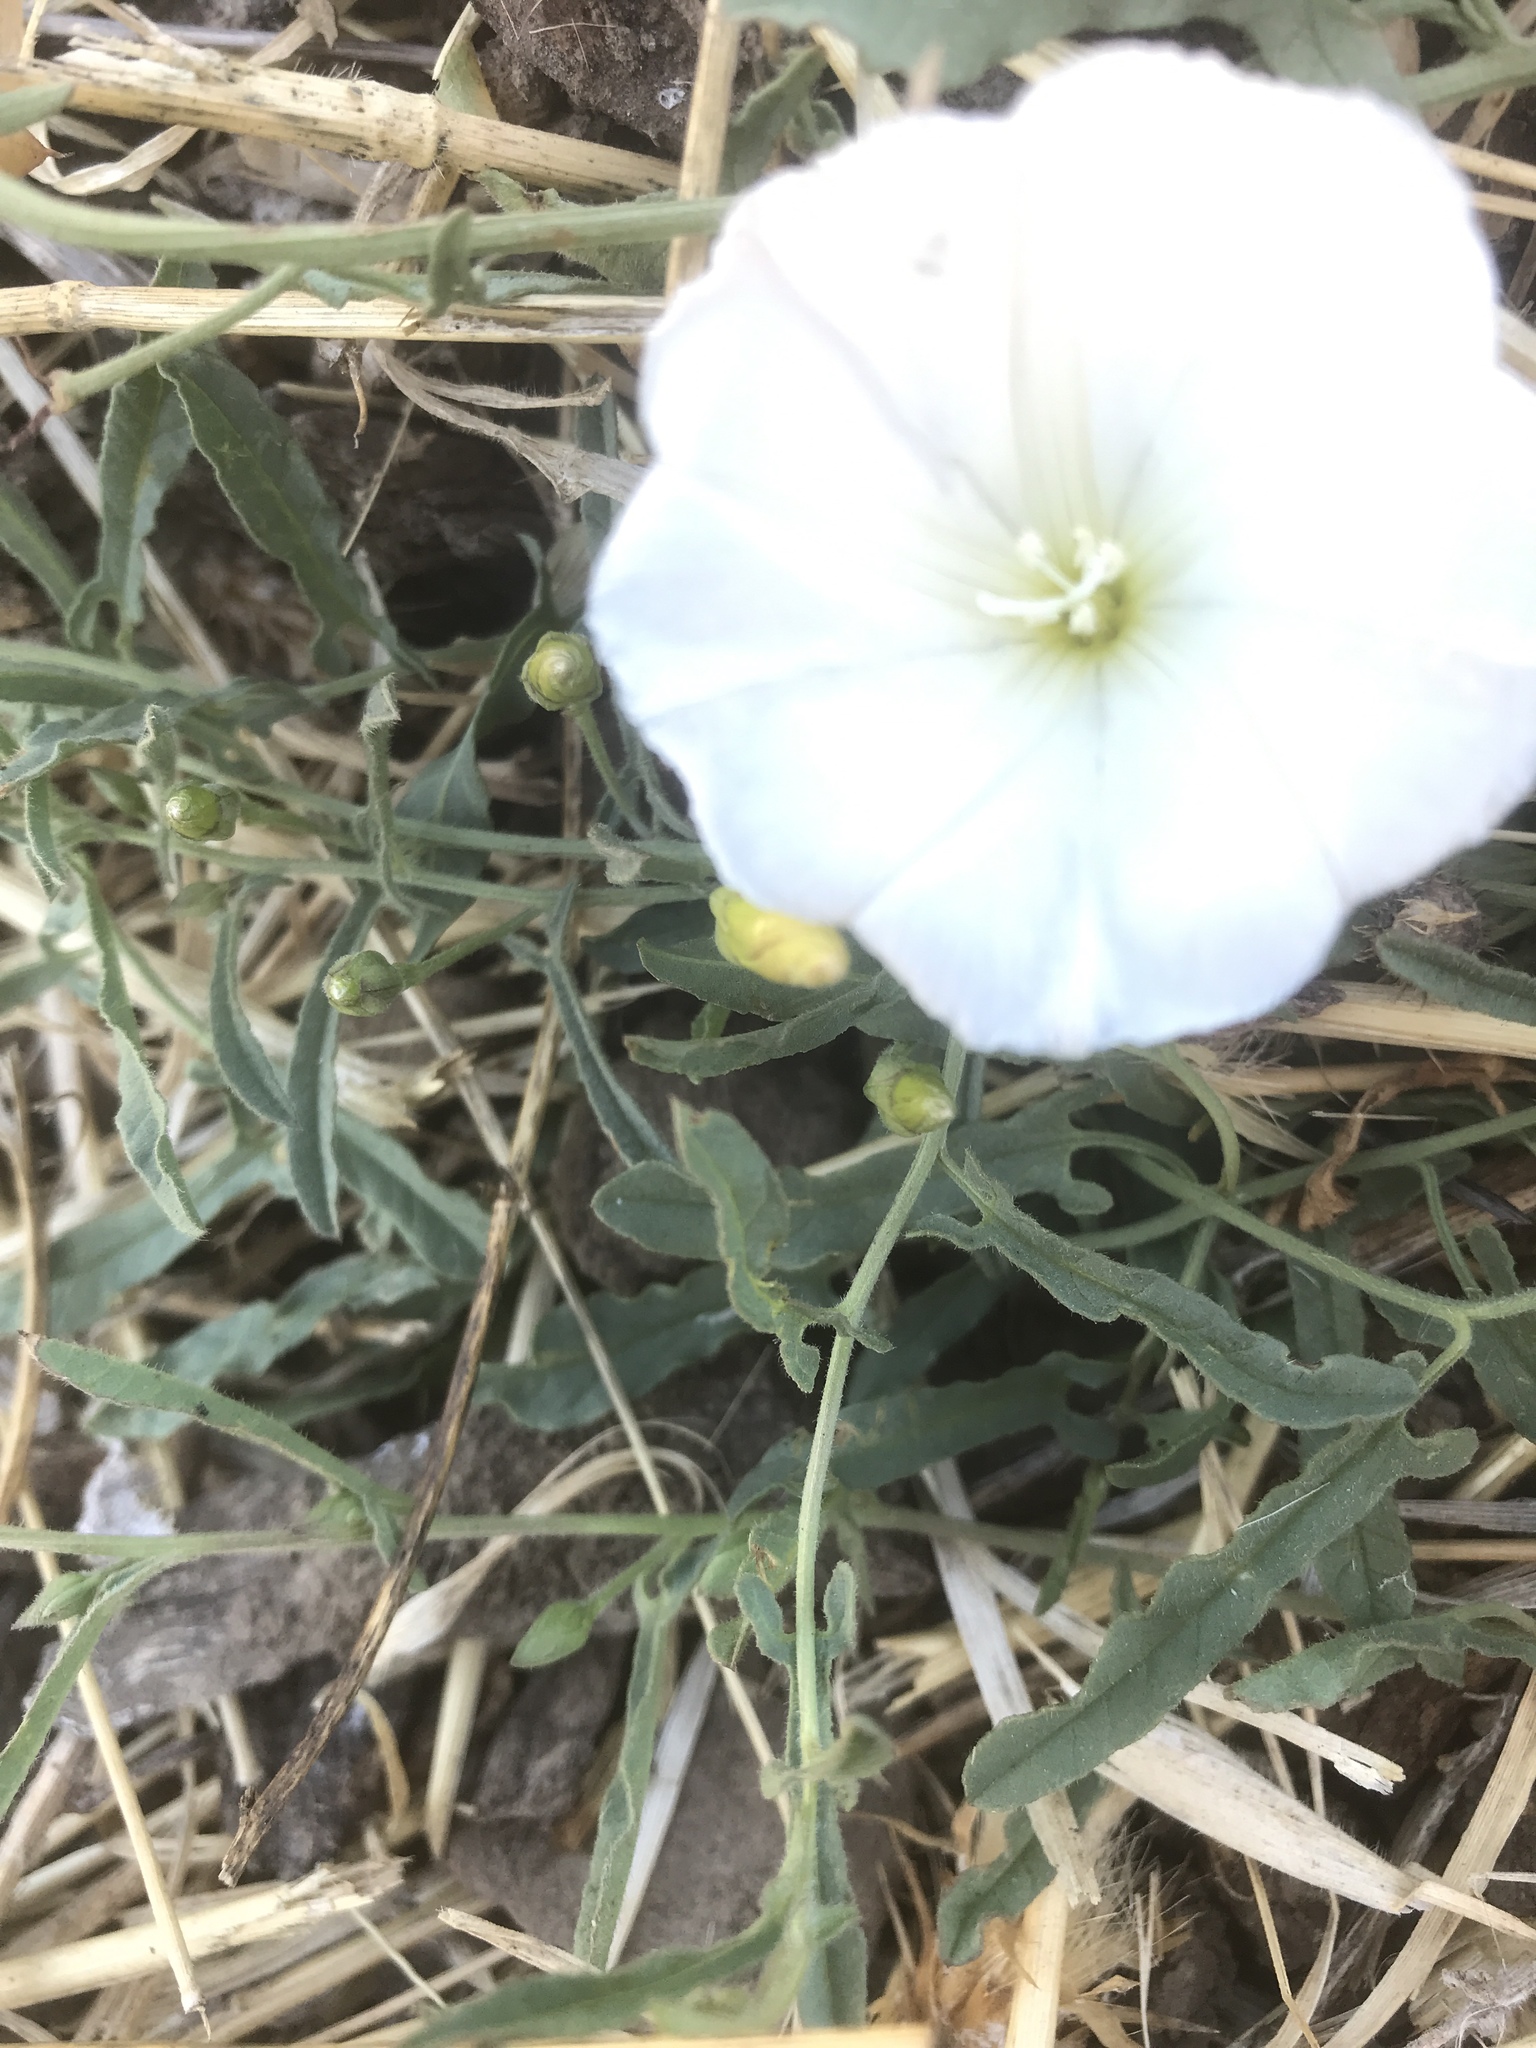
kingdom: Plantae
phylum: Tracheophyta
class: Magnoliopsida
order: Solanales
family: Convolvulaceae
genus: Convolvulus
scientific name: Convolvulus arvensis
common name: Field bindweed
